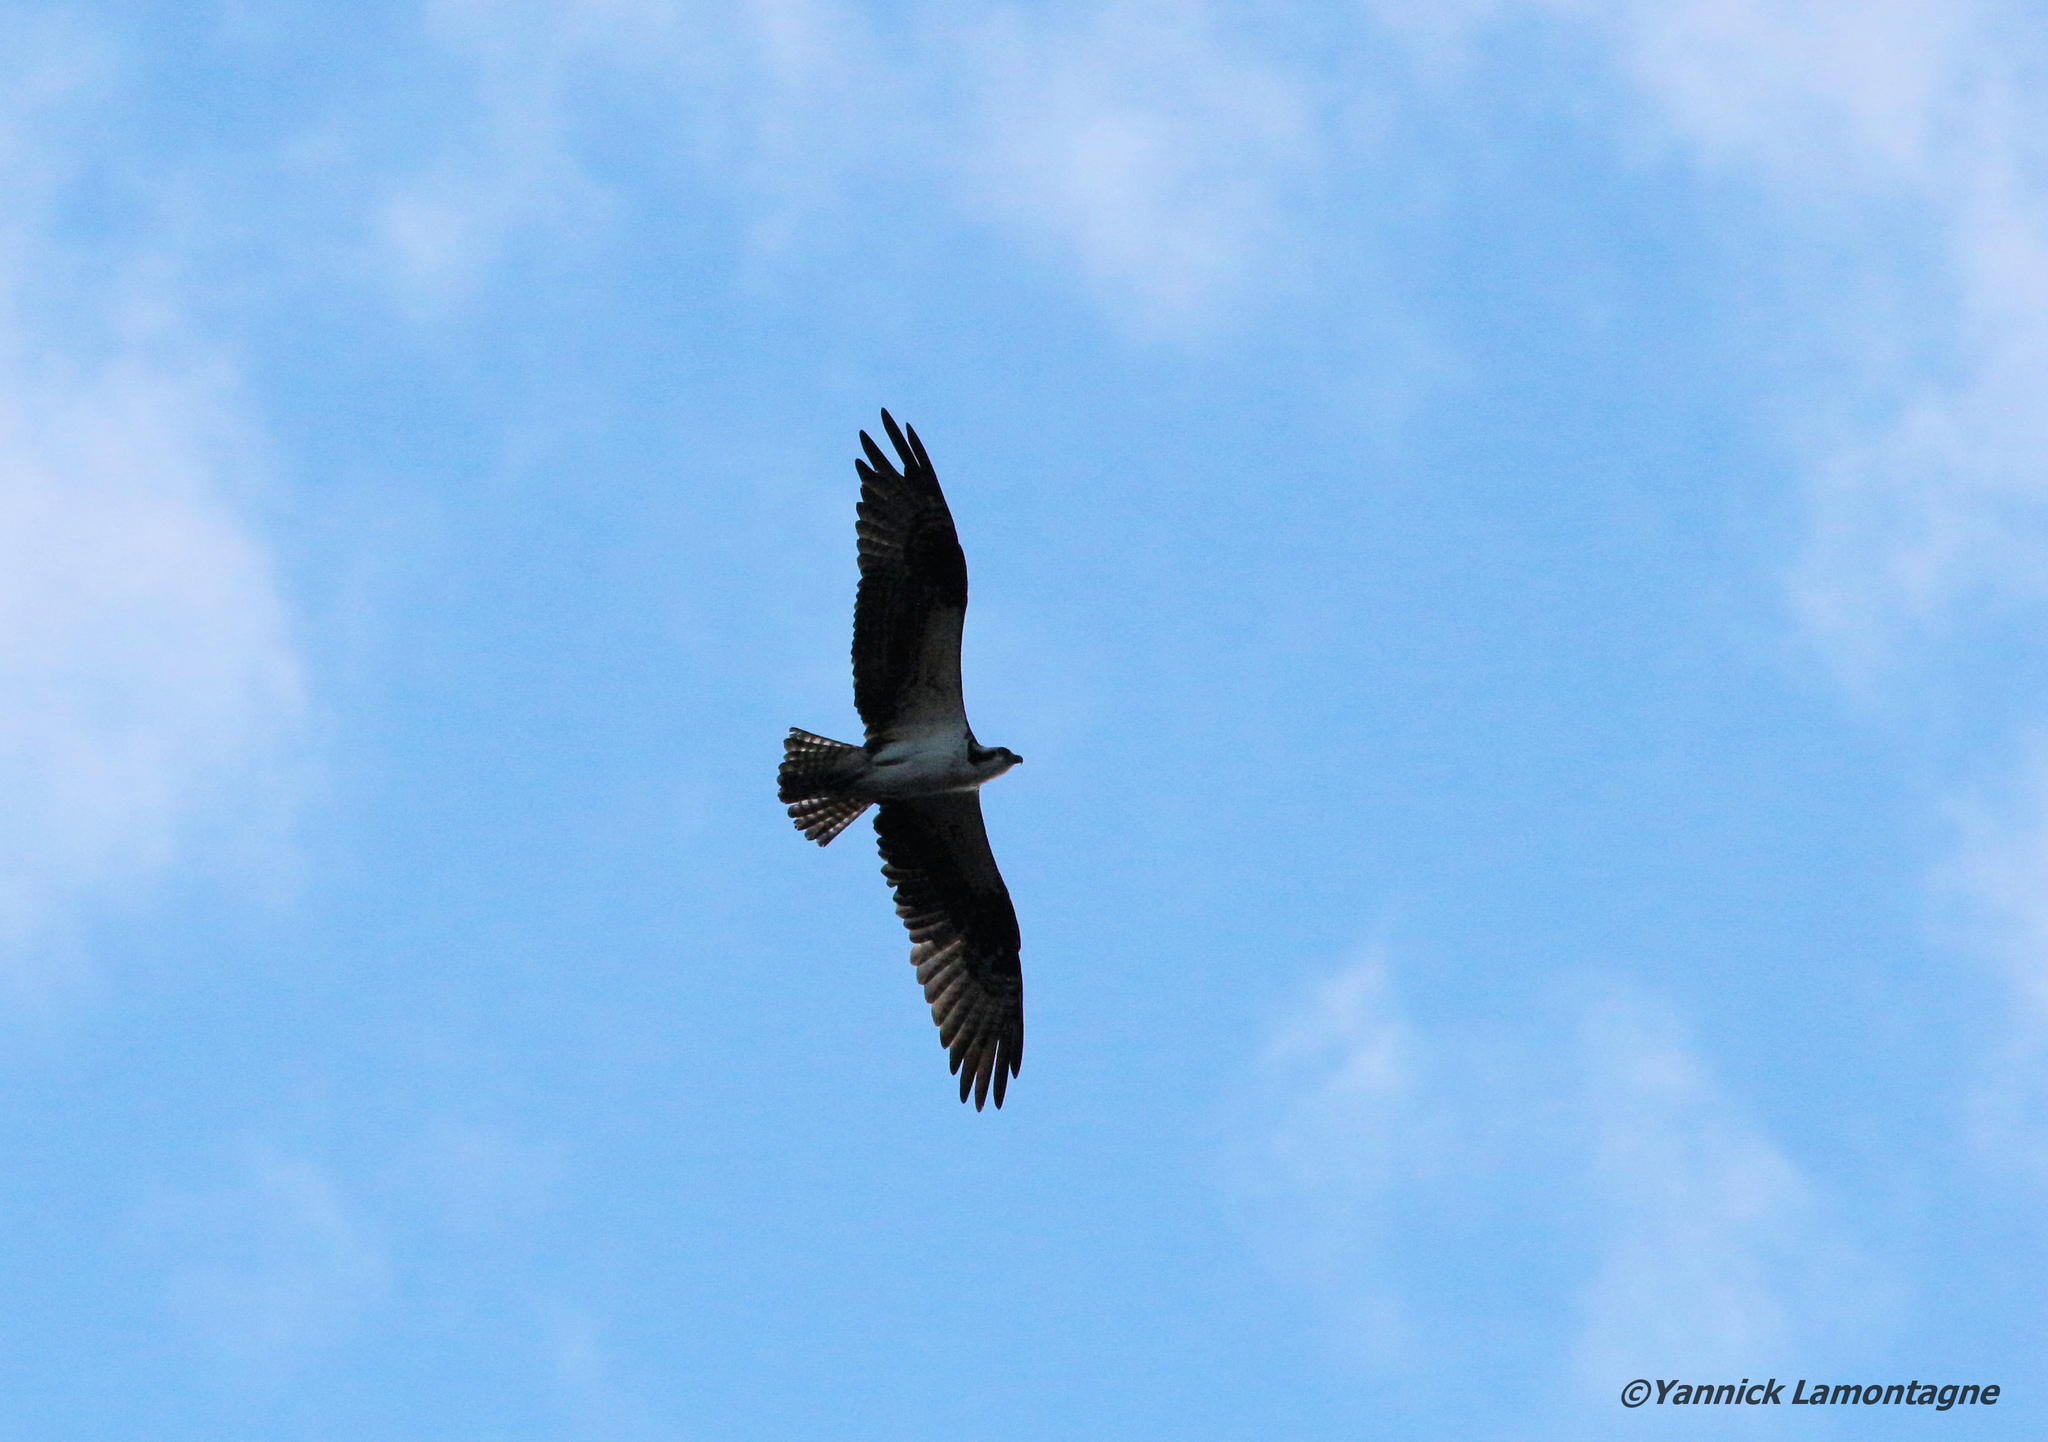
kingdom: Animalia
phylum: Chordata
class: Aves
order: Accipitriformes
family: Pandionidae
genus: Pandion
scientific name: Pandion haliaetus
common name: Osprey
